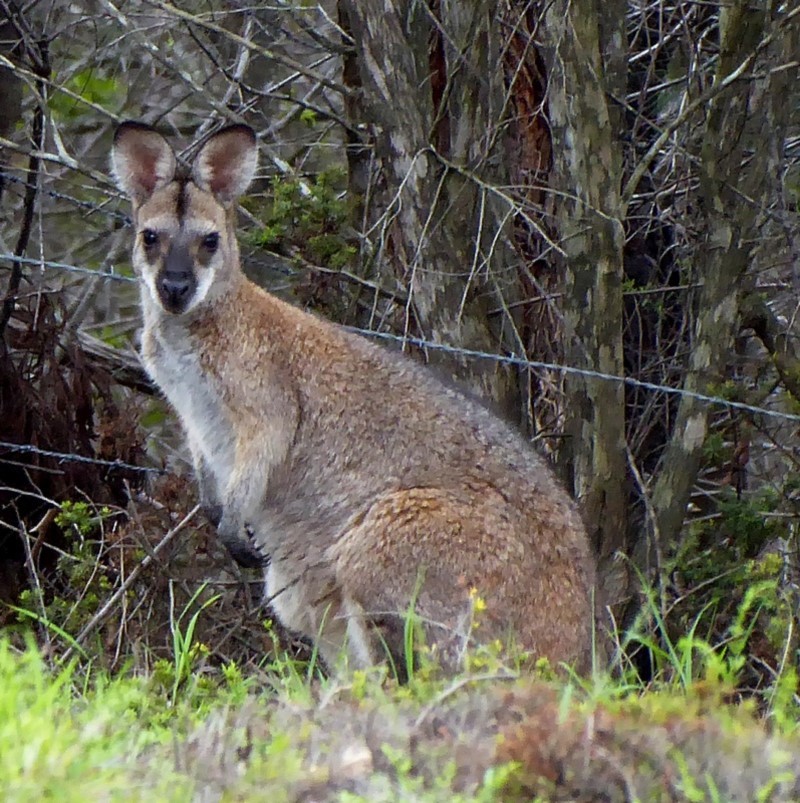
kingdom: Animalia
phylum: Chordata
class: Mammalia
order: Diprotodontia
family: Macropodidae
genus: Notamacropus
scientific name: Notamacropus rufogriseus
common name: Red-necked wallaby
